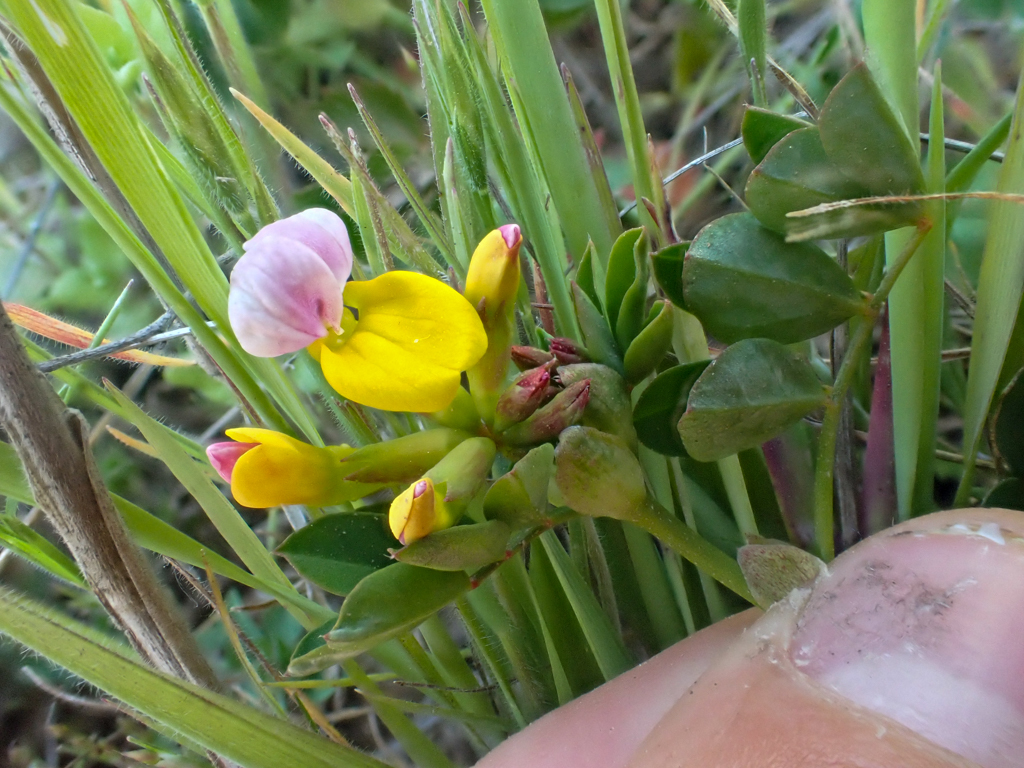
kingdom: Plantae
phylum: Tracheophyta
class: Magnoliopsida
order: Fabales
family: Fabaceae
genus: Hosackia
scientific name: Hosackia gracilis
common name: Seaside bird's-foot lotus
